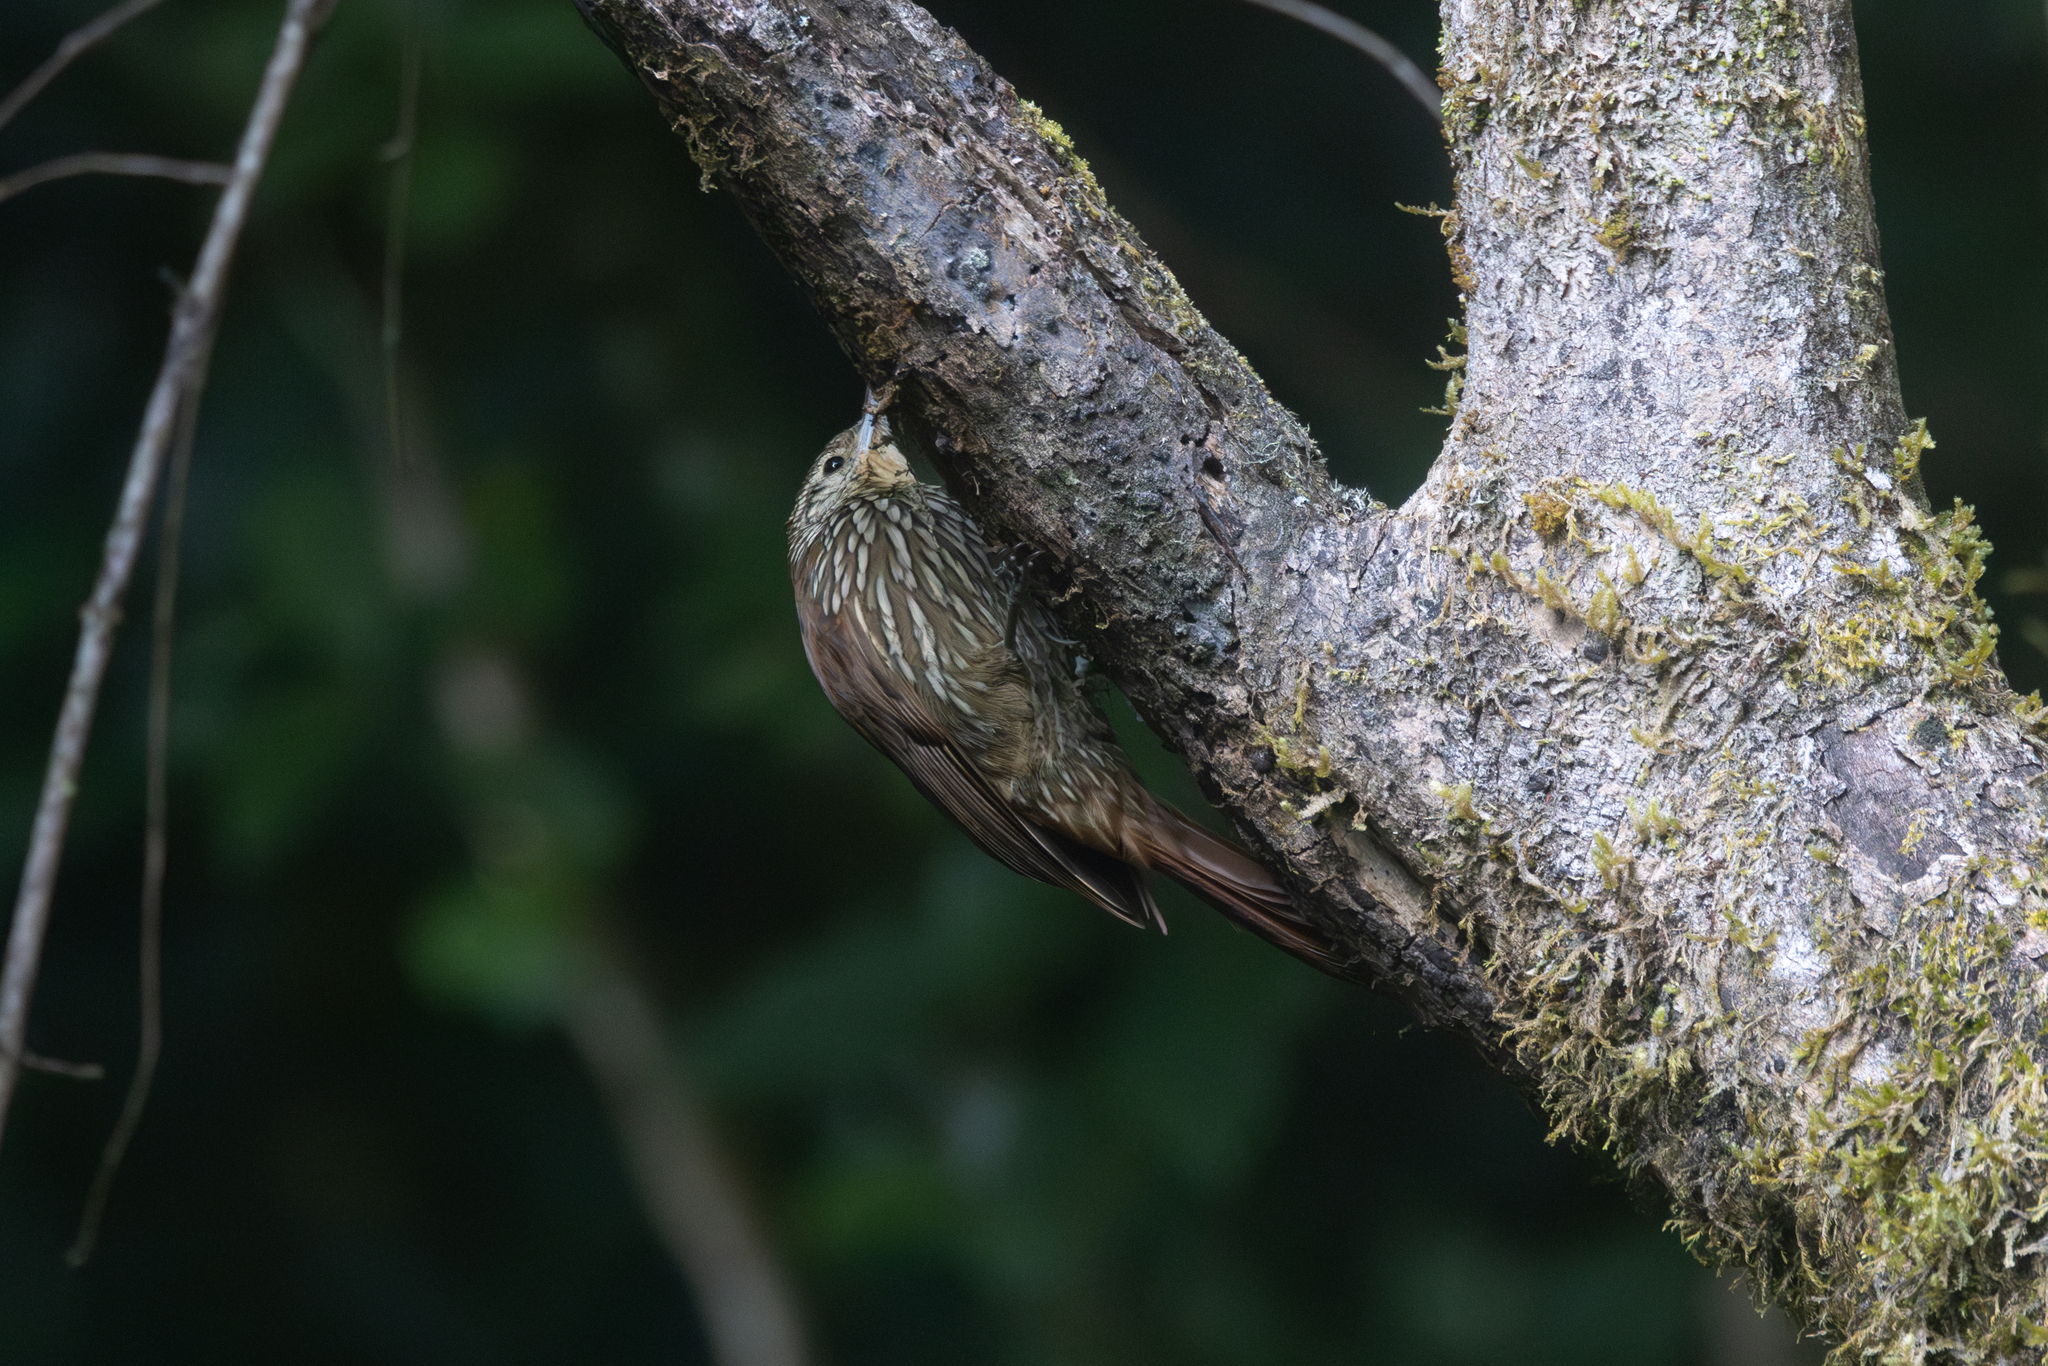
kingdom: Animalia
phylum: Chordata
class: Aves
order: Passeriformes
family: Furnariidae
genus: Lepidocolaptes
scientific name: Lepidocolaptes affinis
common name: Spot-crowned woodcreeper
